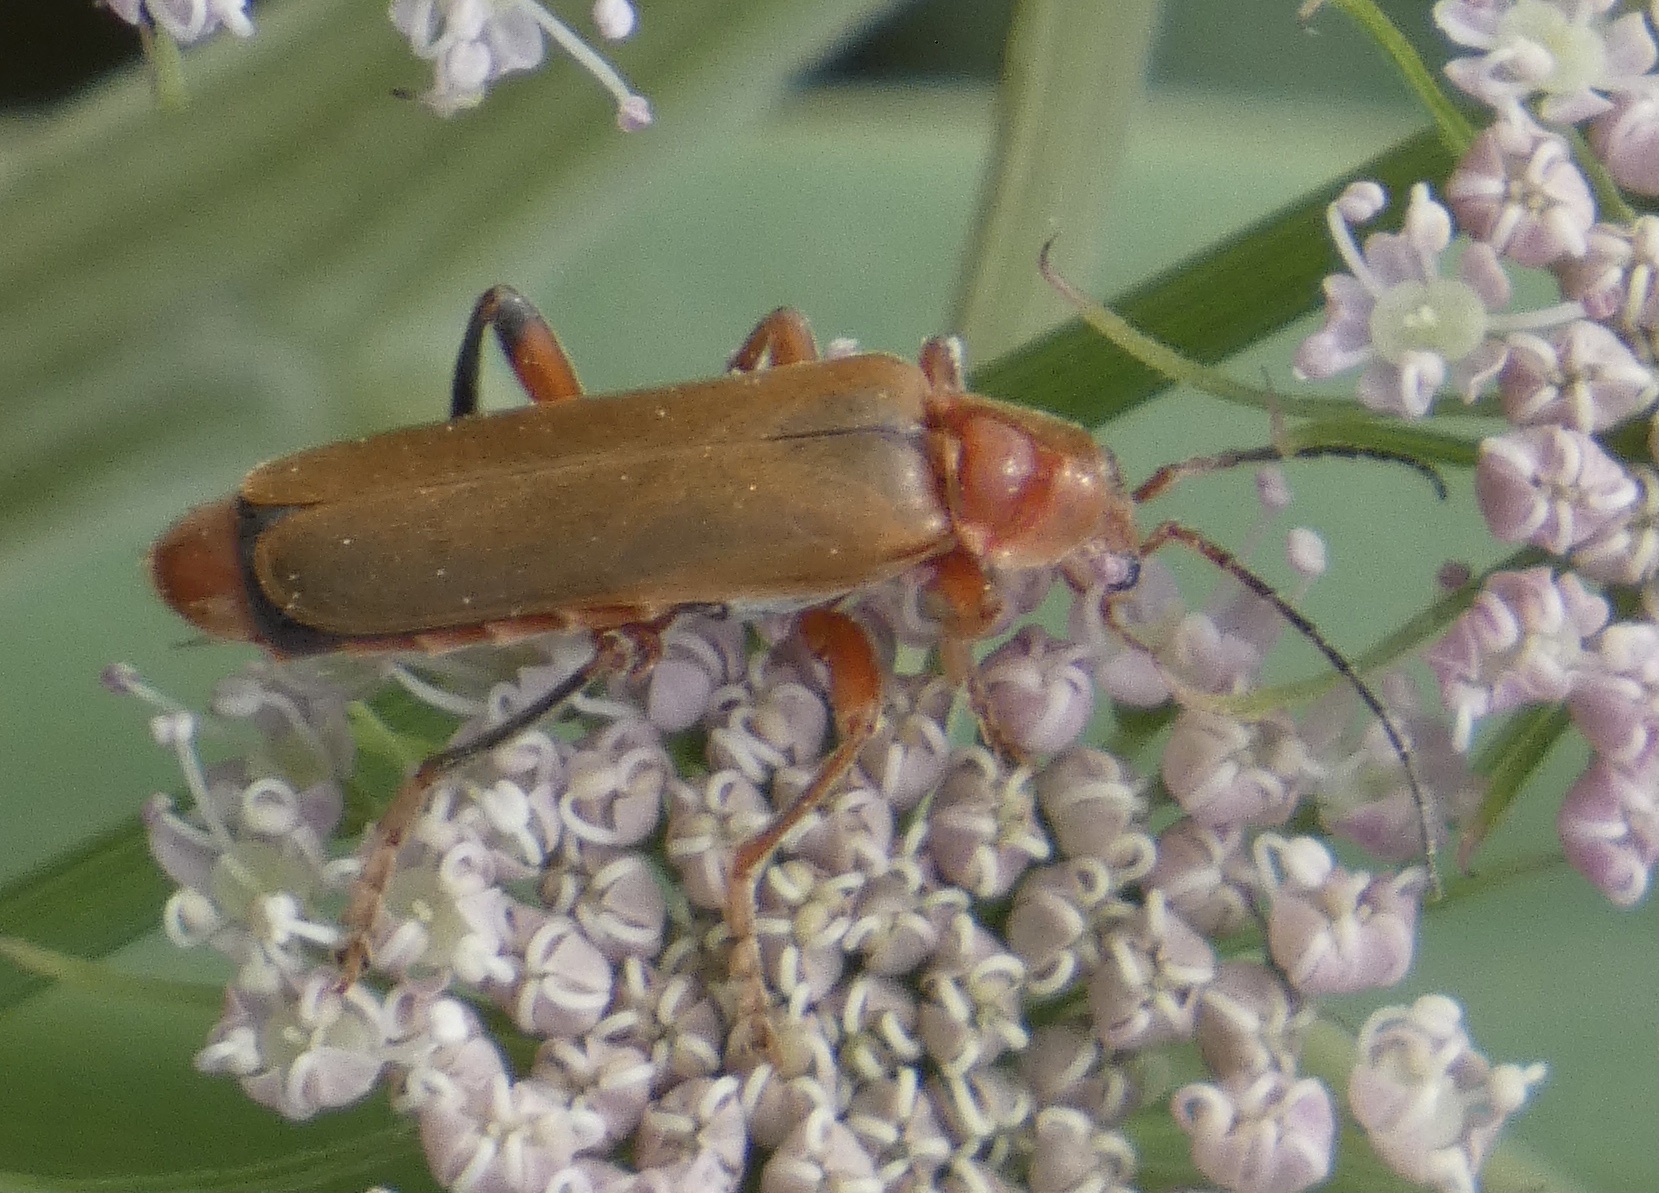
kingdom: Animalia
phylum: Arthropoda
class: Insecta
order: Coleoptera
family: Cantharidae
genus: Cantharis
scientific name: Cantharis livida
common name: Livid soldier beetle
